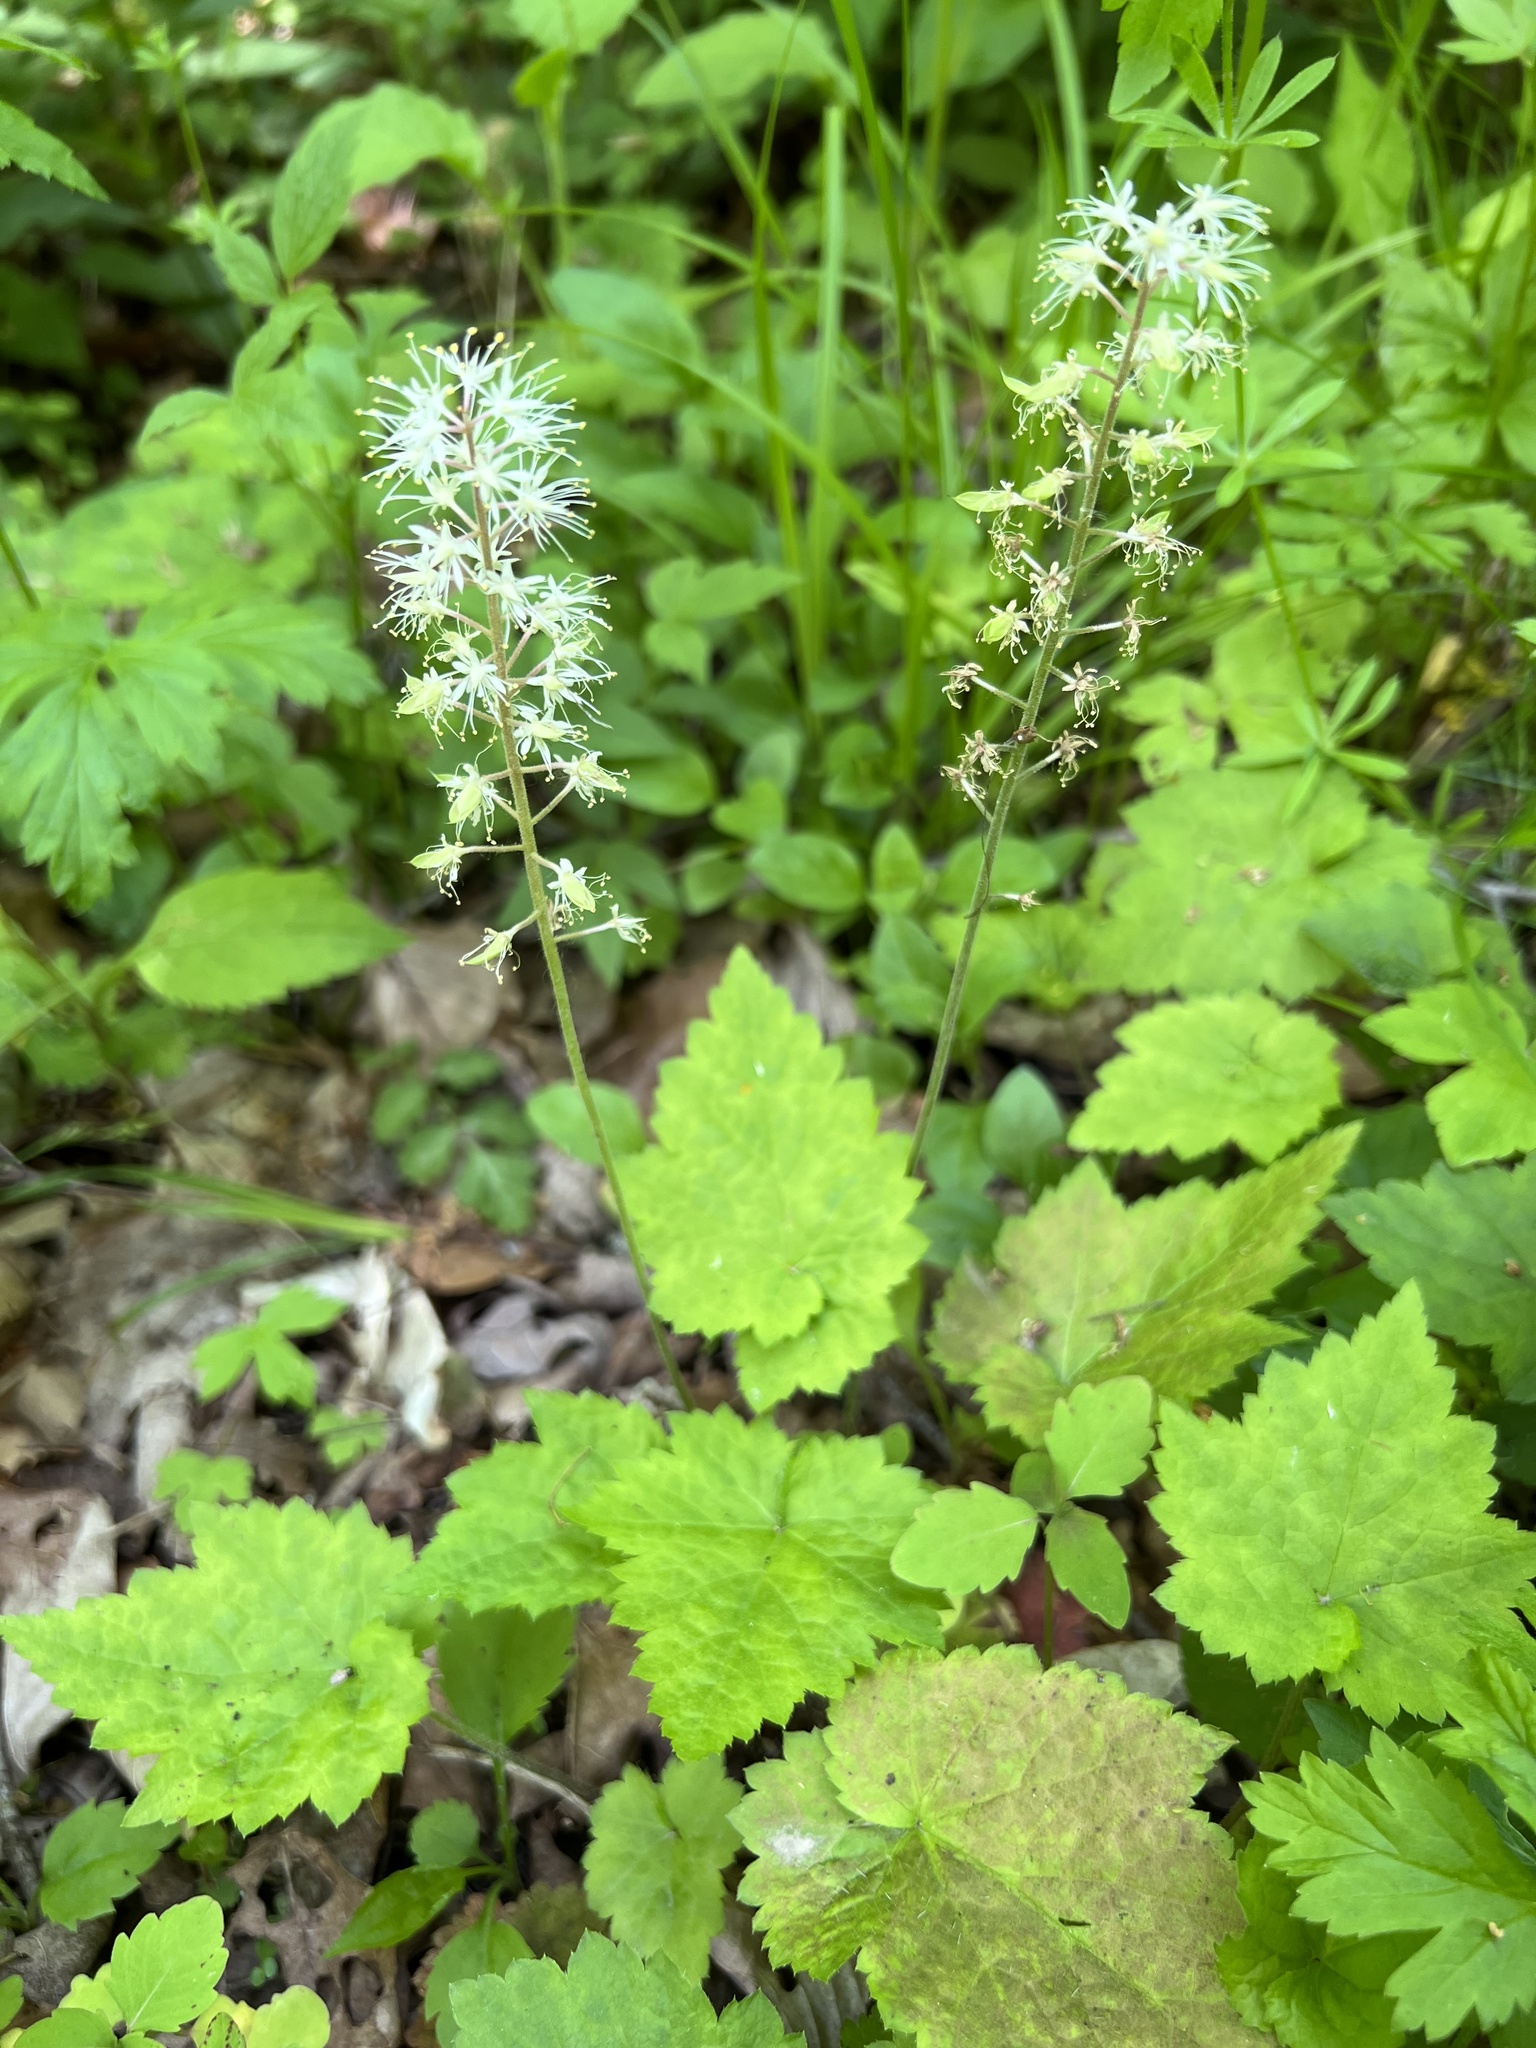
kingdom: Plantae
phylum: Tracheophyta
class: Magnoliopsida
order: Saxifragales
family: Saxifragaceae
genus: Tiarella
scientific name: Tiarella stolonifera
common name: Stoloniferous foamflower
